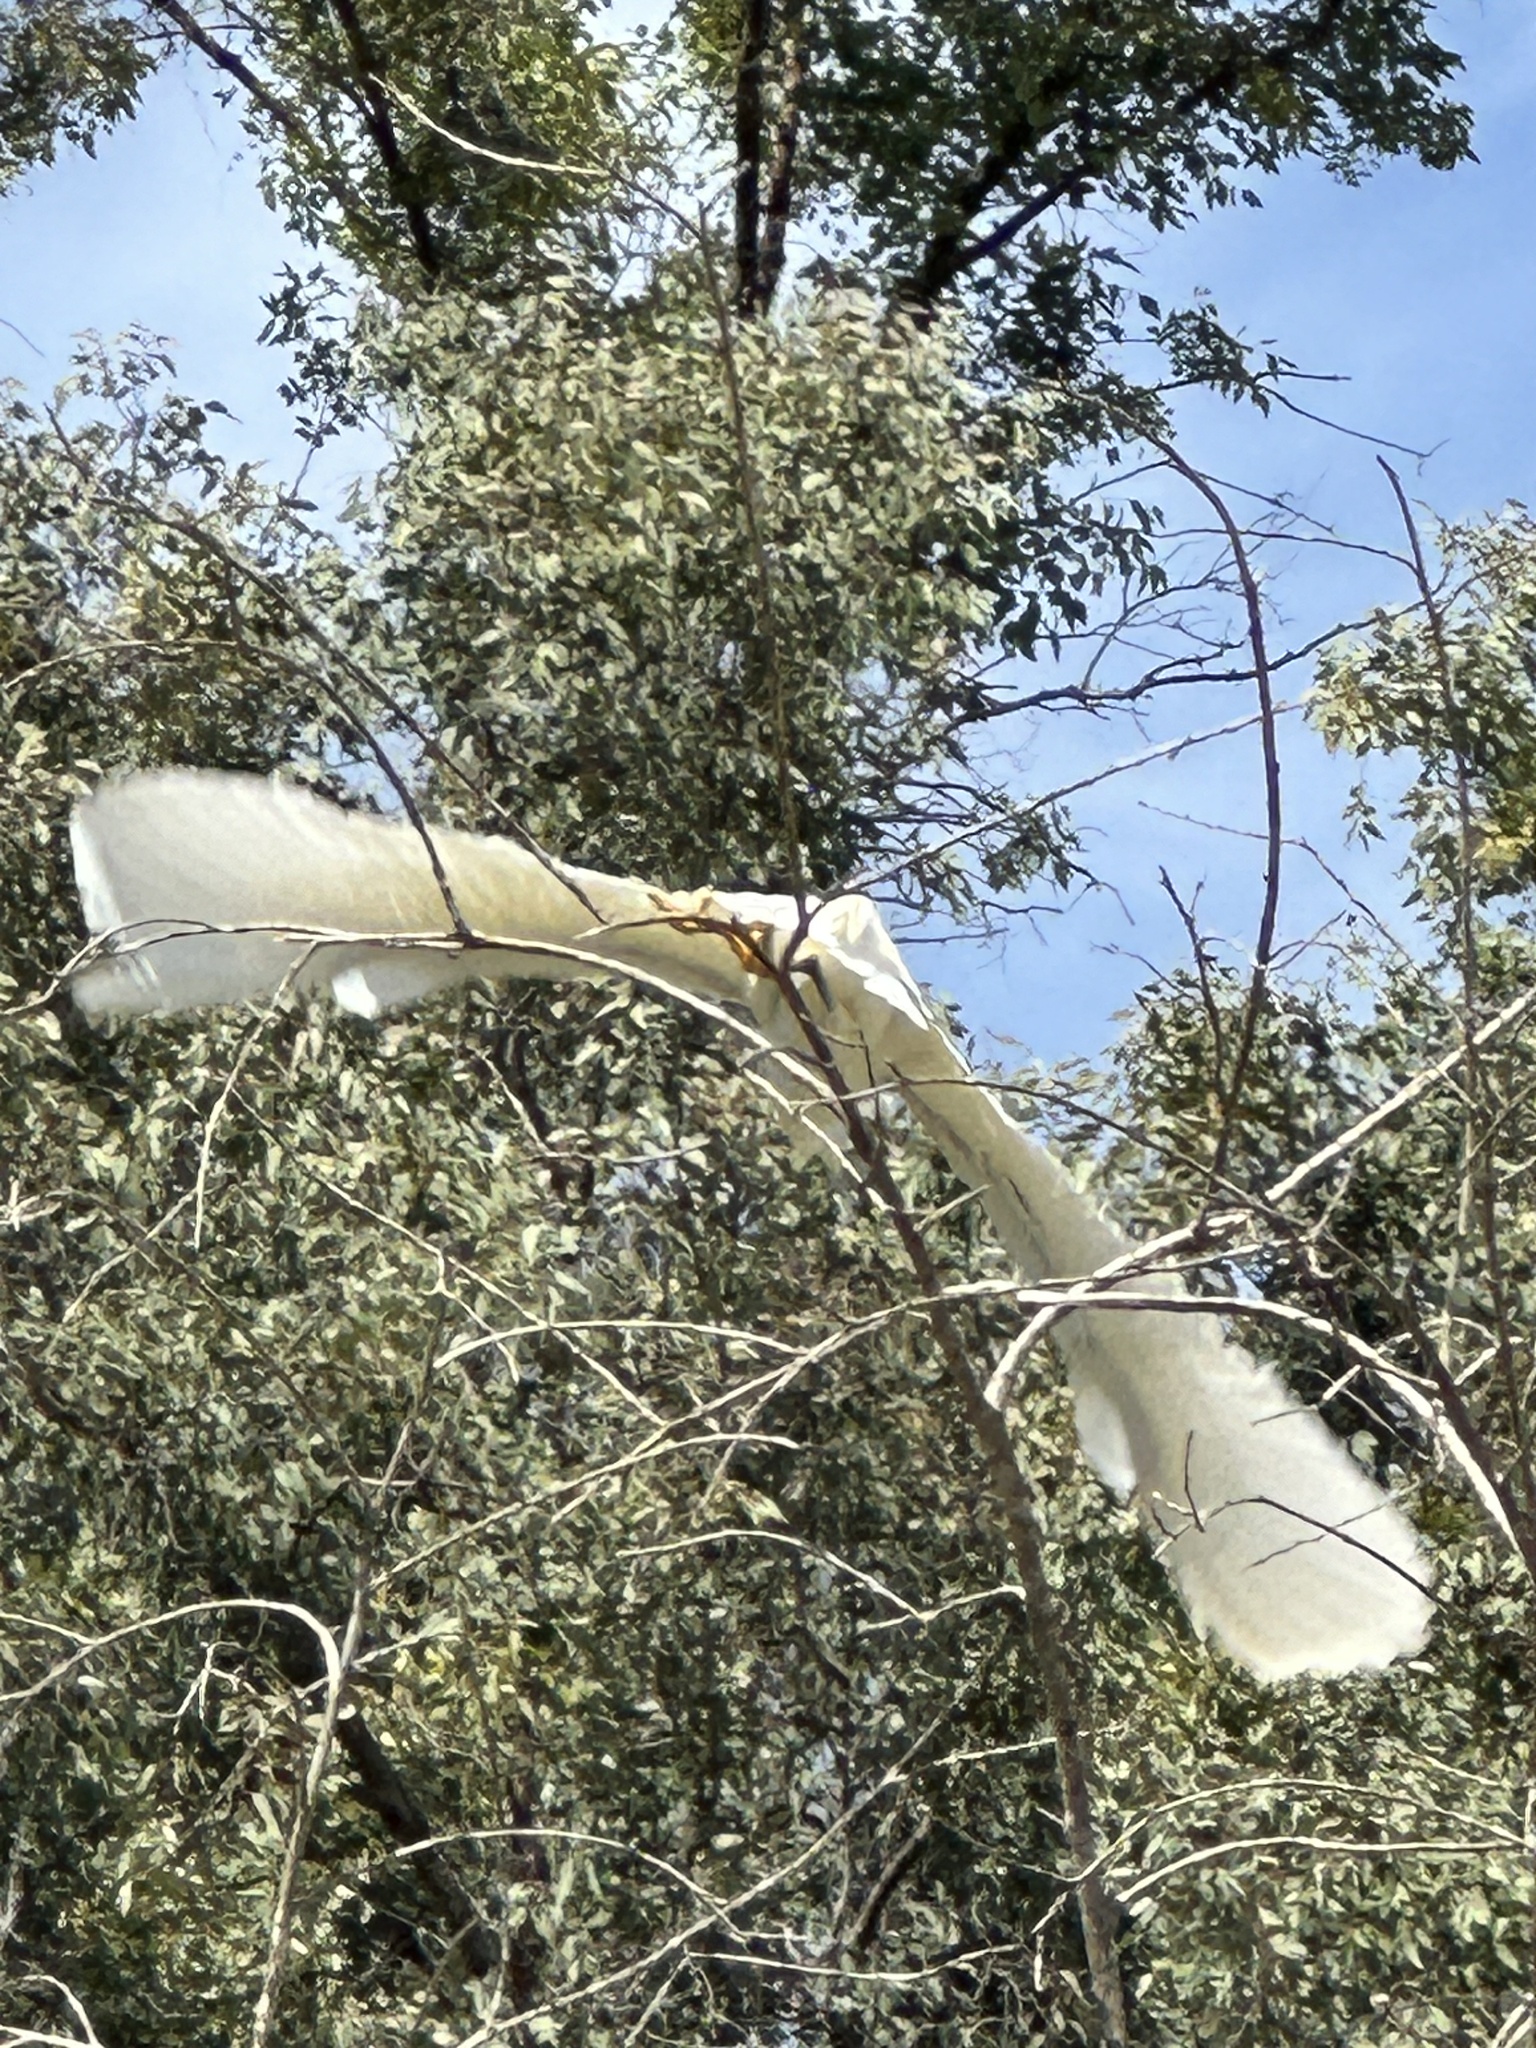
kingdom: Animalia
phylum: Chordata
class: Aves
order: Pelecaniformes
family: Ardeidae
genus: Egretta
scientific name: Egretta thula
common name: Snowy egret
